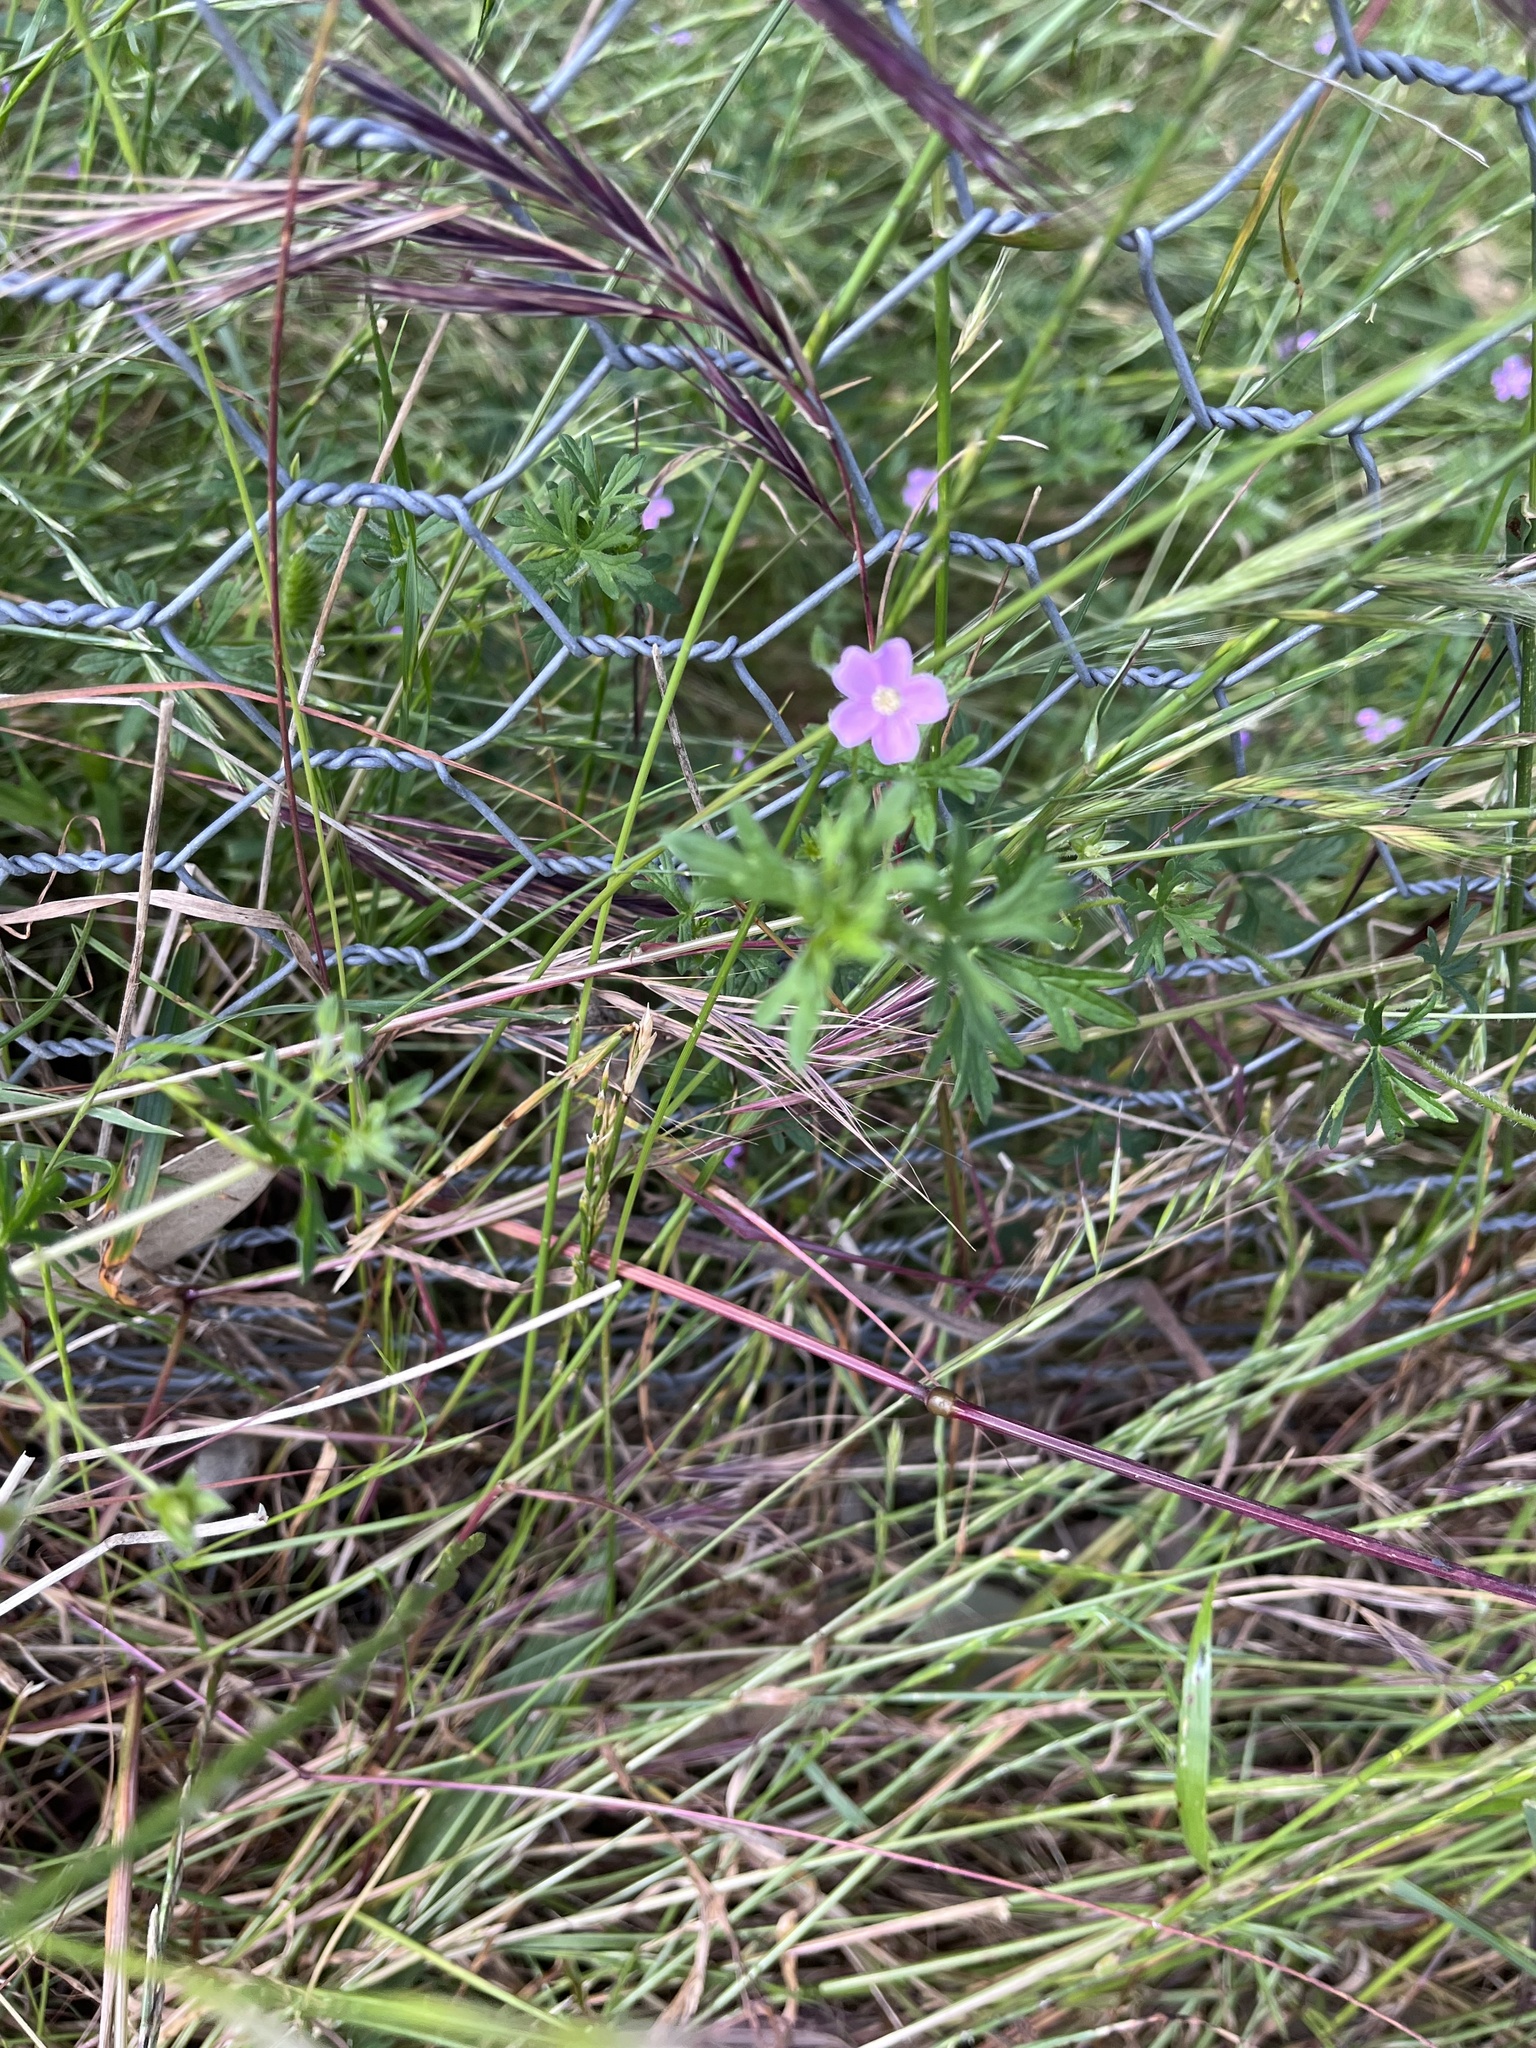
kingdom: Plantae
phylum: Tracheophyta
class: Magnoliopsida
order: Geraniales
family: Geraniaceae
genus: Geranium
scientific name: Geranium
